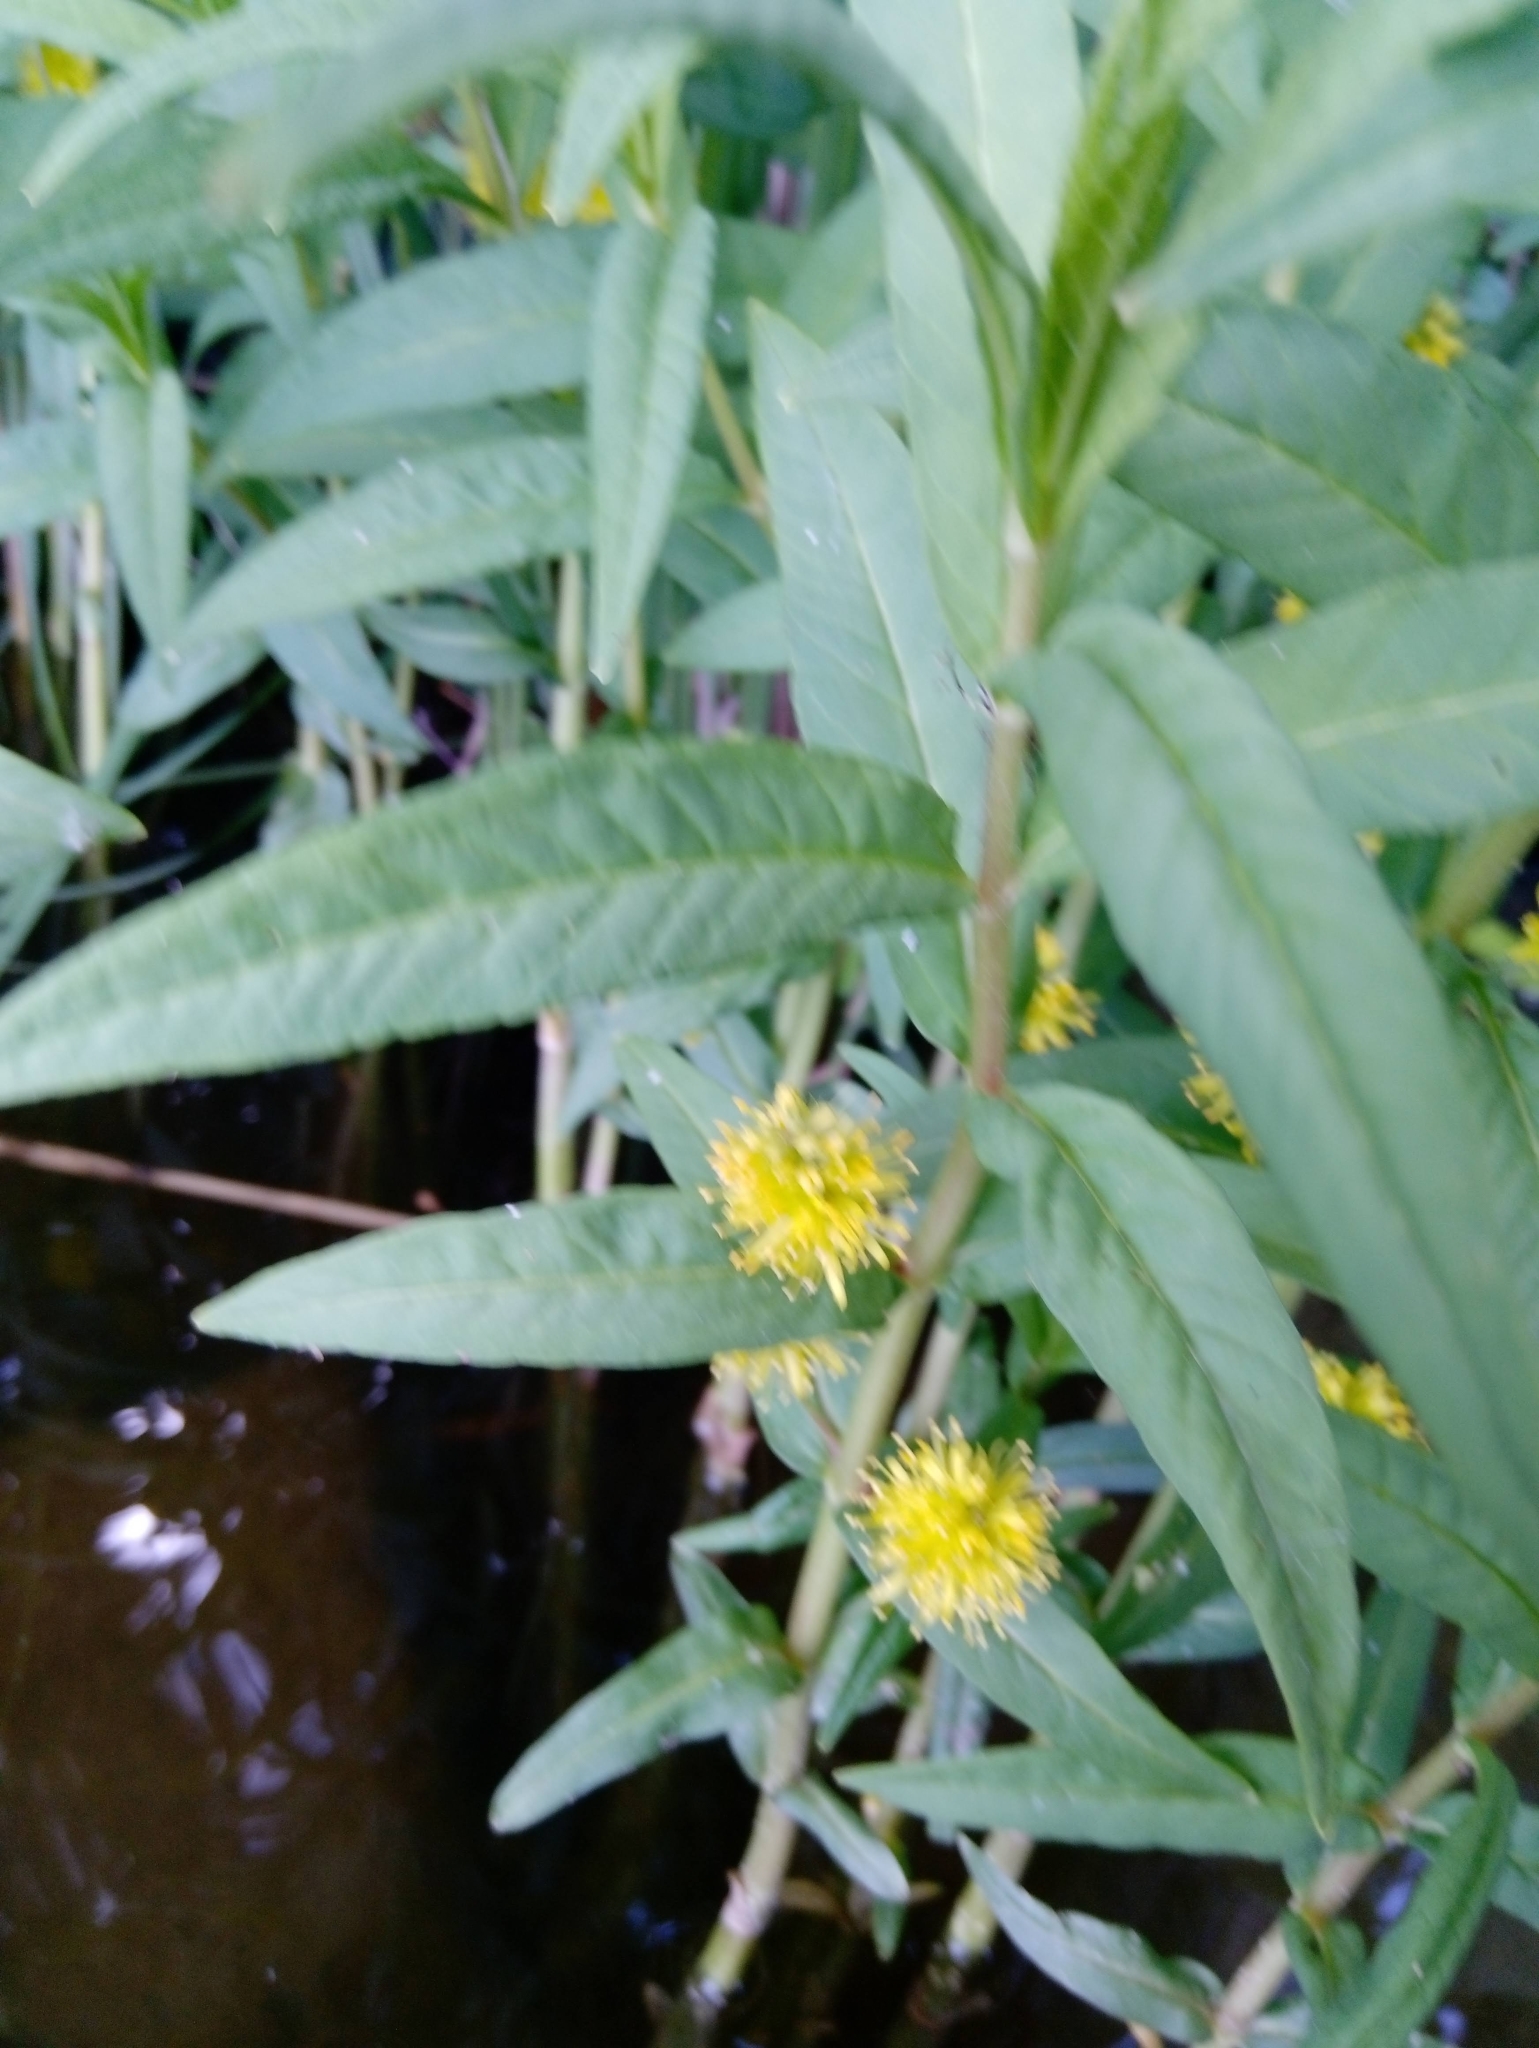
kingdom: Plantae
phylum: Tracheophyta
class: Magnoliopsida
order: Ericales
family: Primulaceae
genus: Lysimachia
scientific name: Lysimachia thyrsiflora
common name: Tufted loosestrife
